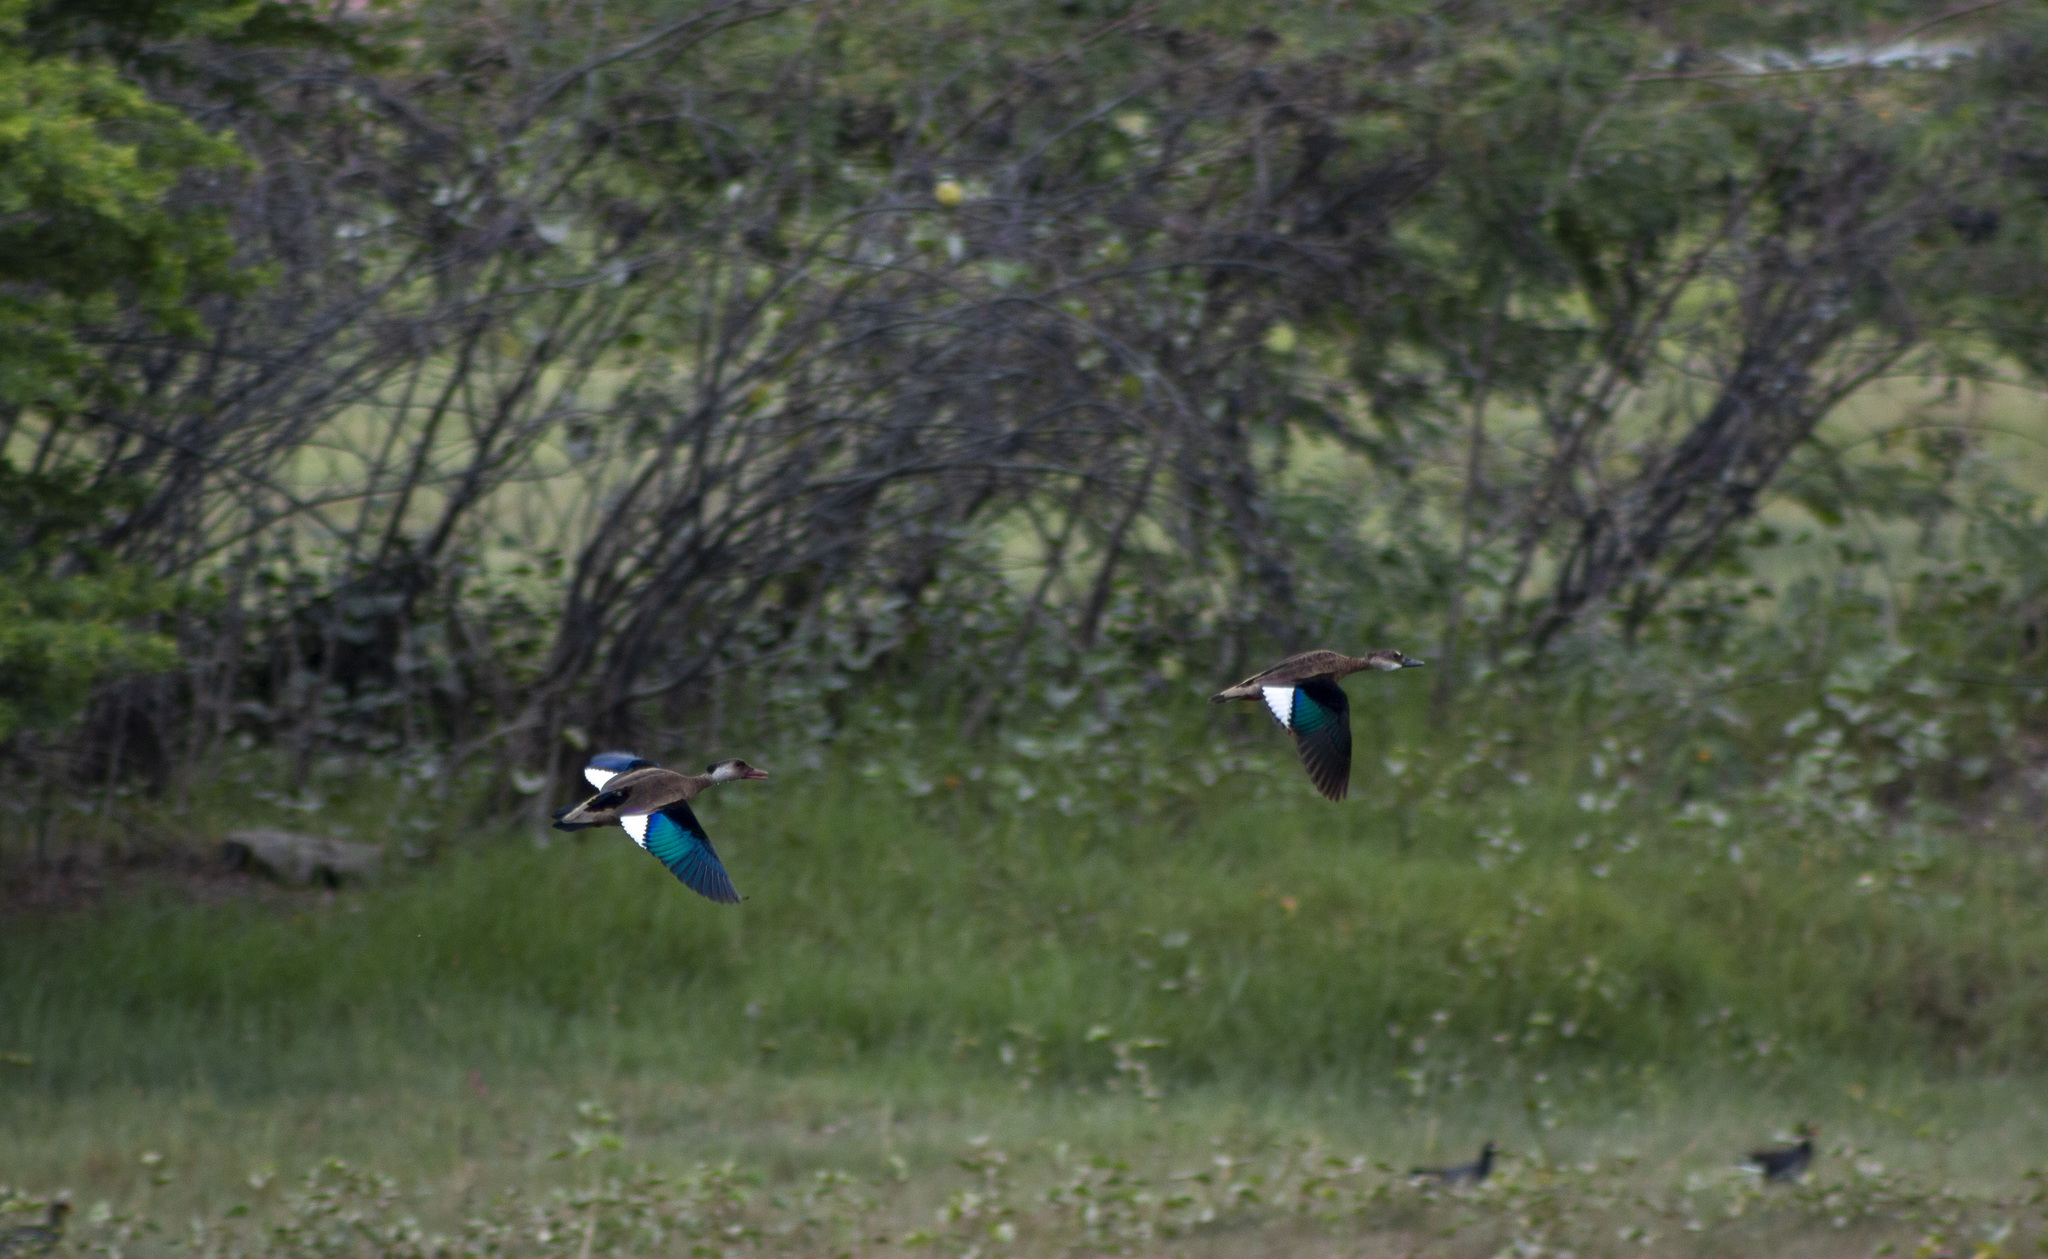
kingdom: Animalia
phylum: Chordata
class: Aves
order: Anseriformes
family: Anatidae
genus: Amazonetta
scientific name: Amazonetta brasiliensis
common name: Brazilian teal
